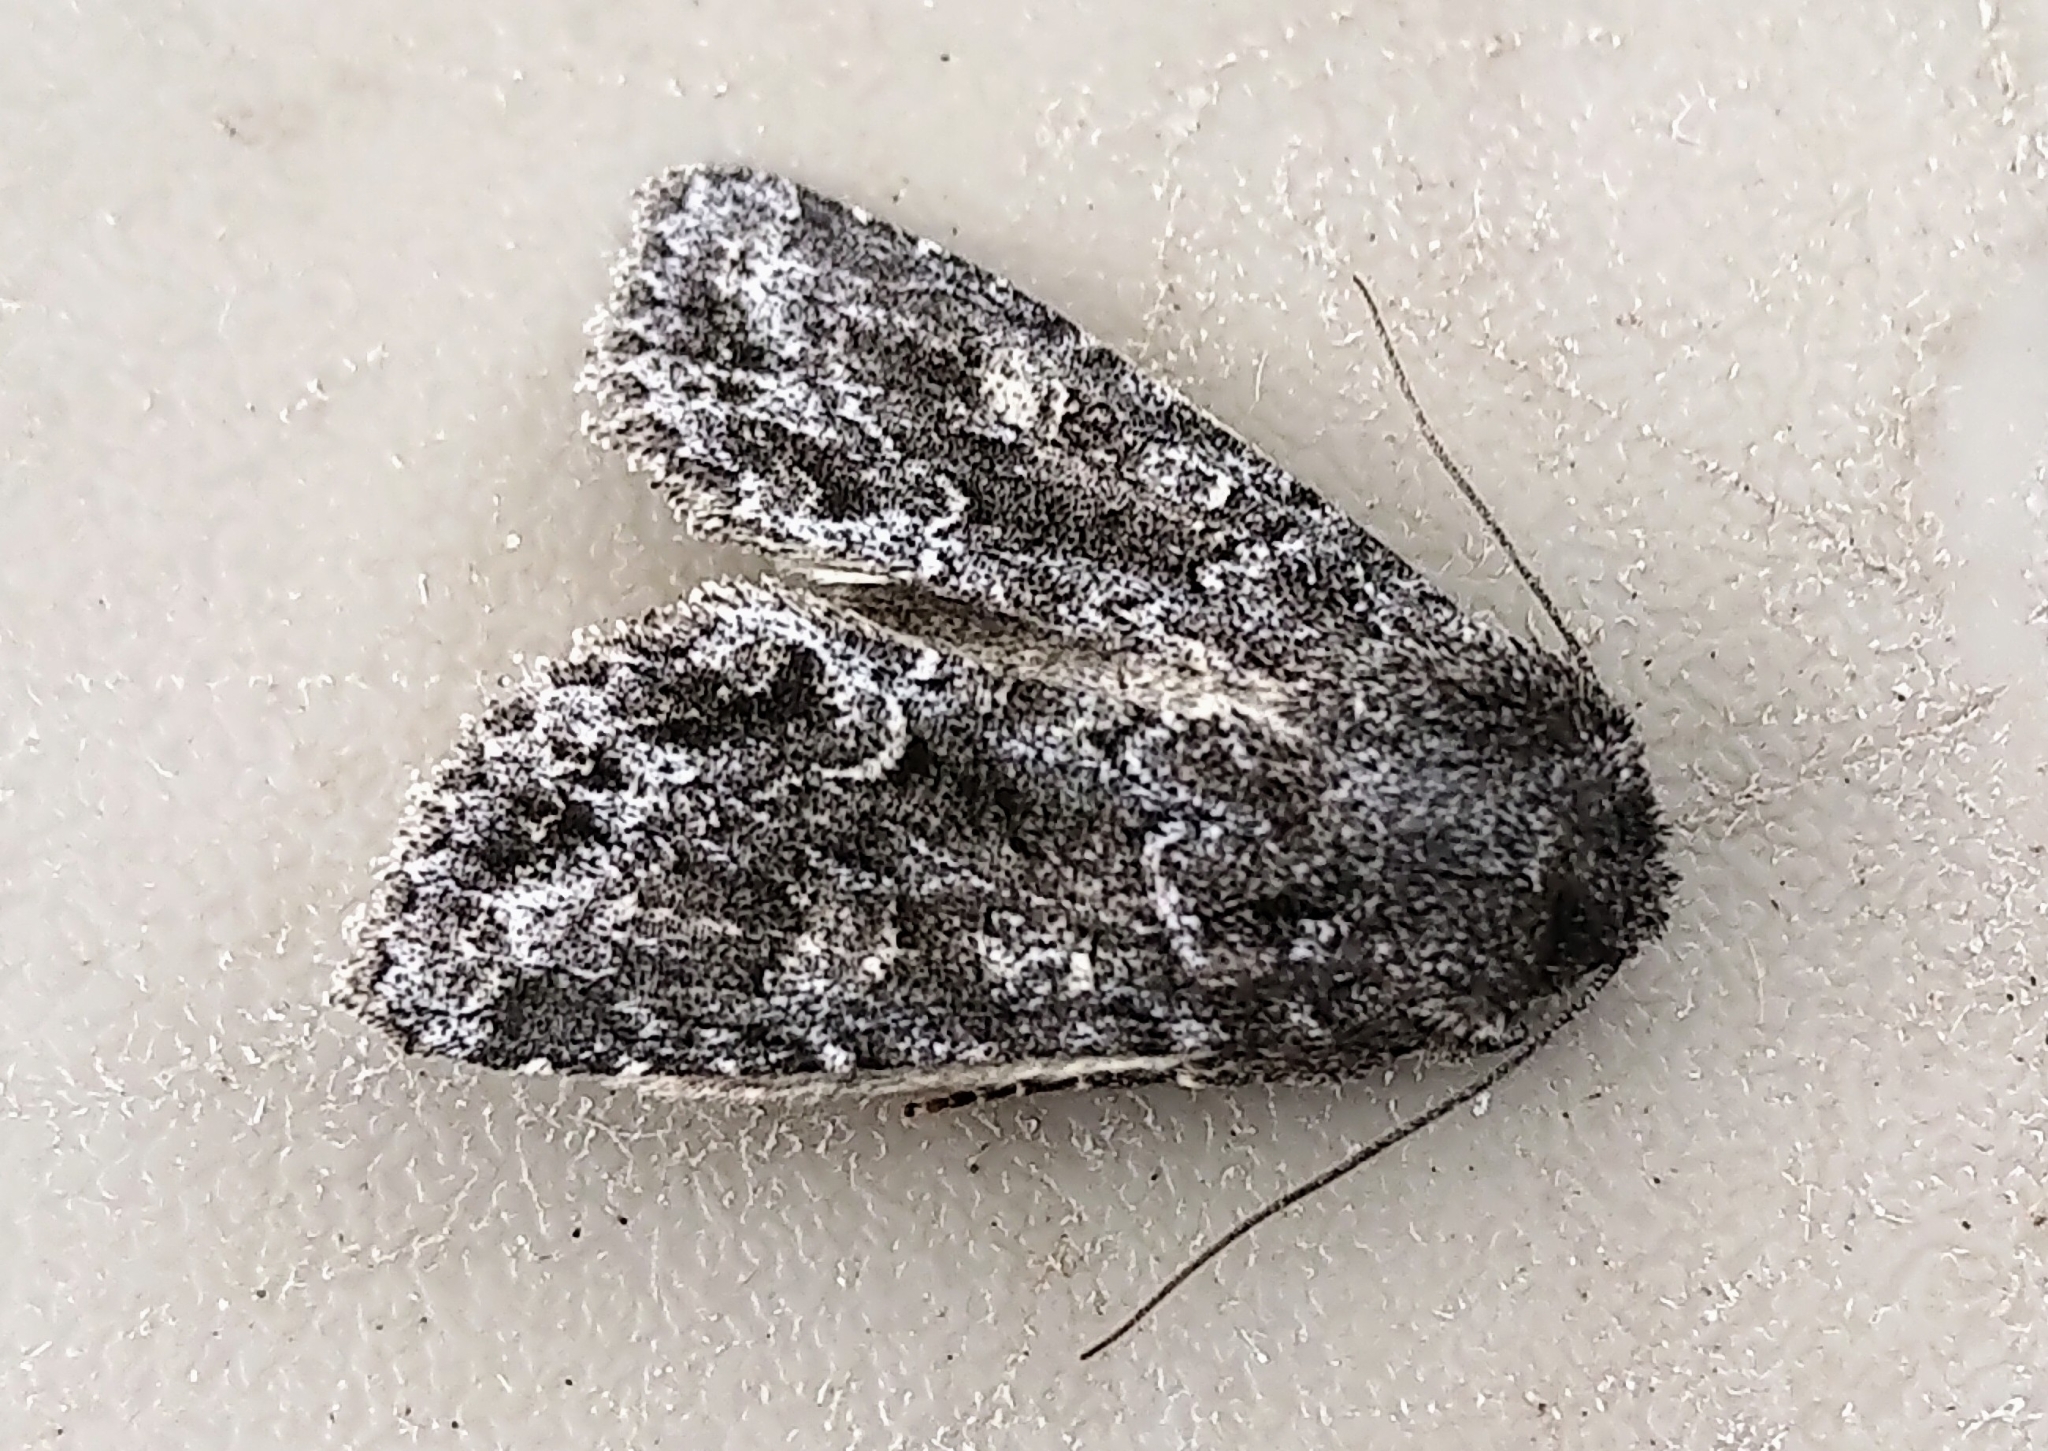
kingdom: Animalia
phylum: Arthropoda
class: Insecta
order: Lepidoptera
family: Noctuidae
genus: Sutyna
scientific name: Sutyna privata
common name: Private sallow
